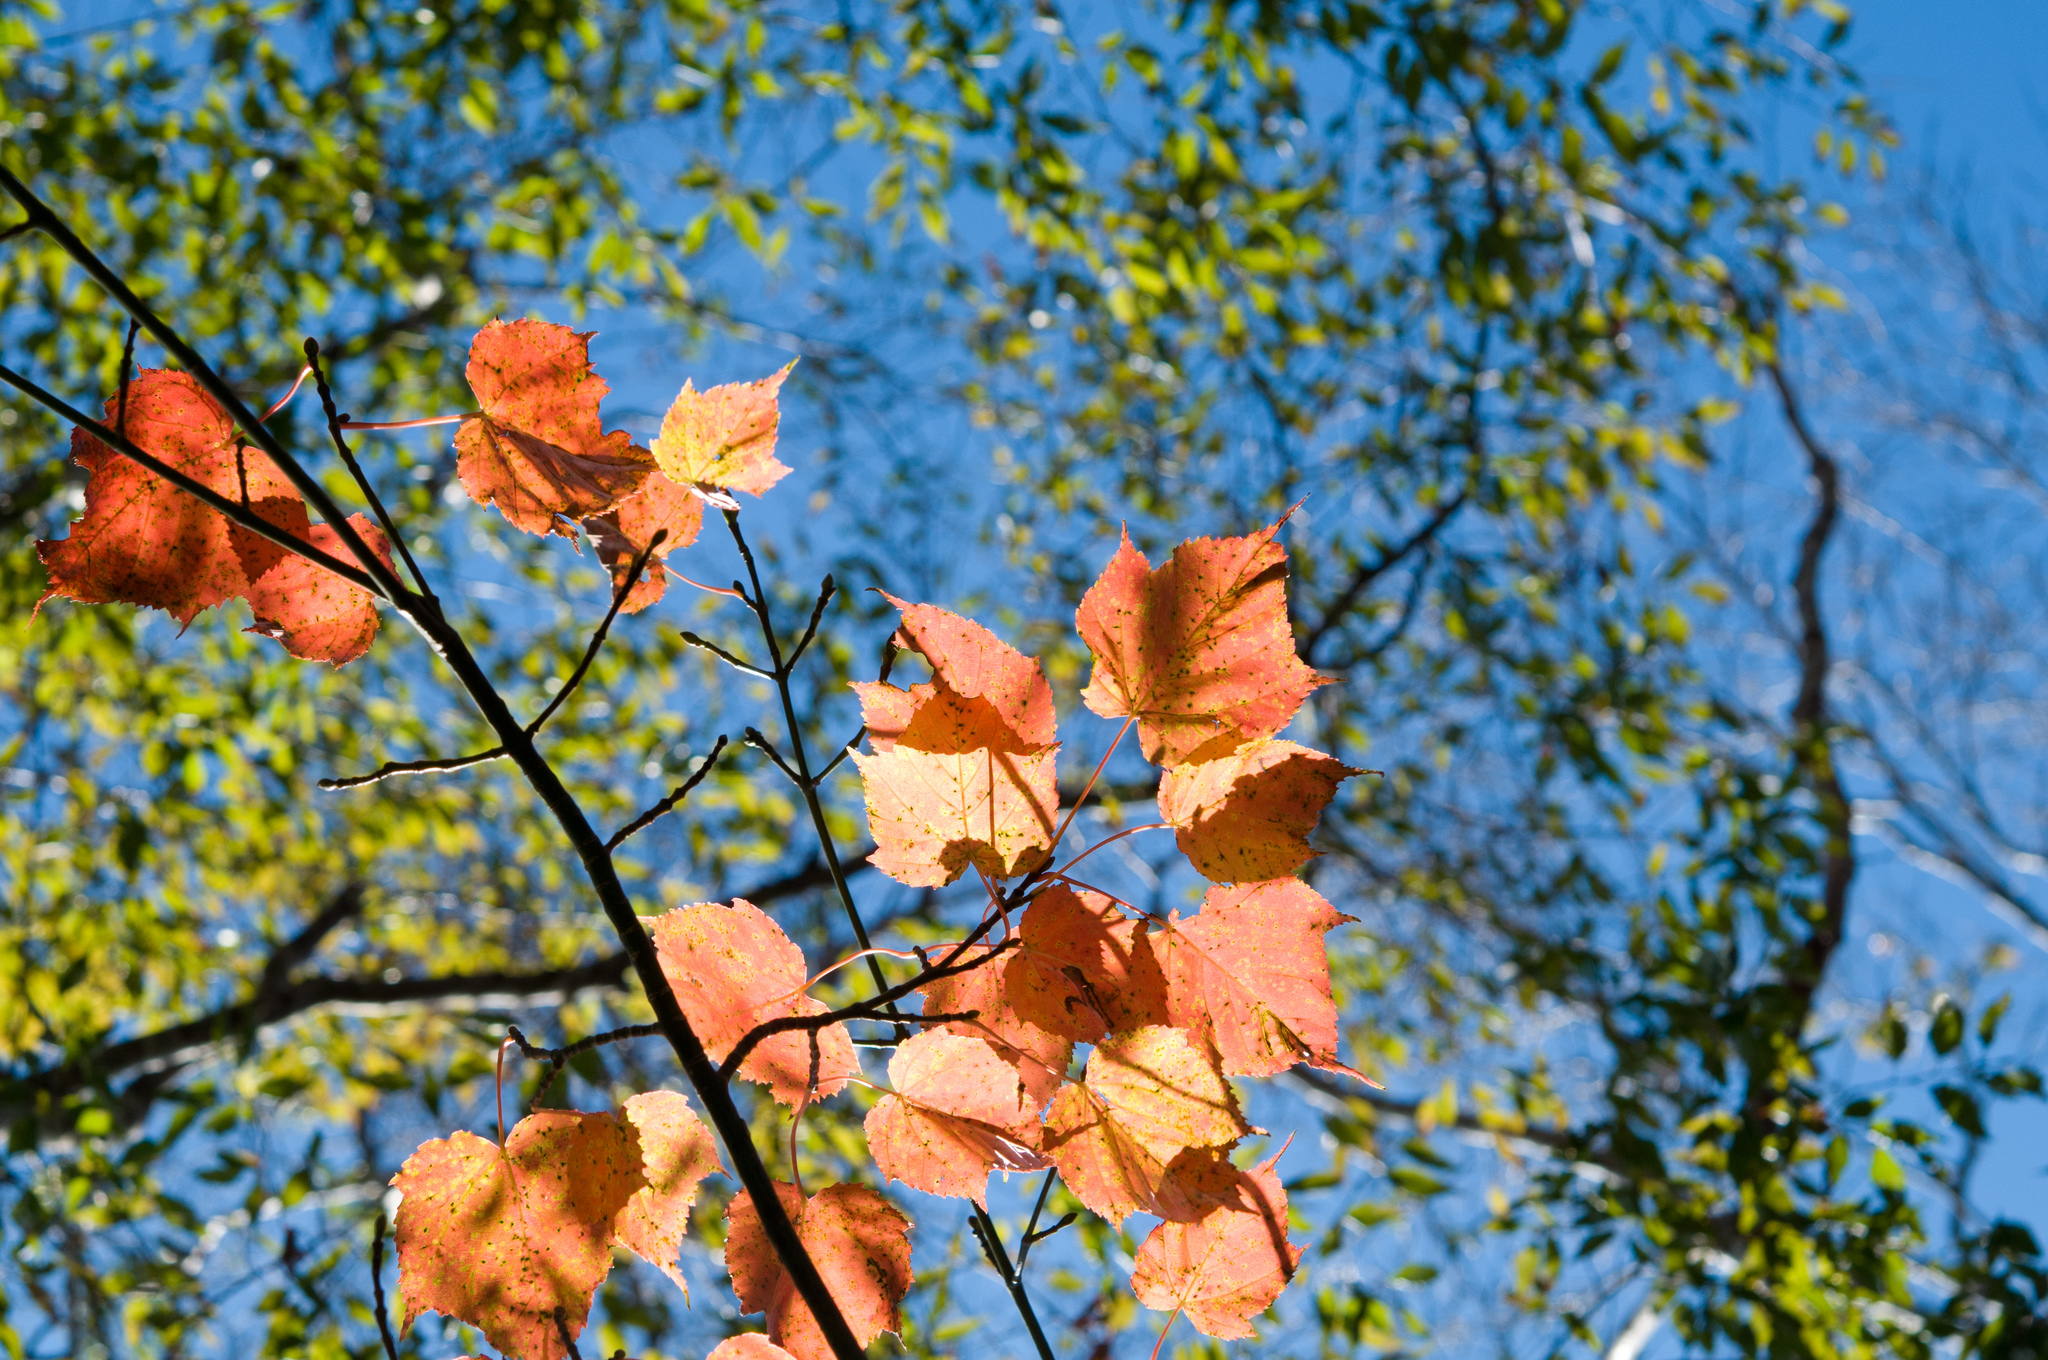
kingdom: Plantae
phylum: Tracheophyta
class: Magnoliopsida
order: Sapindales
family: Sapindaceae
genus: Acer
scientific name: Acer caudatifolium
